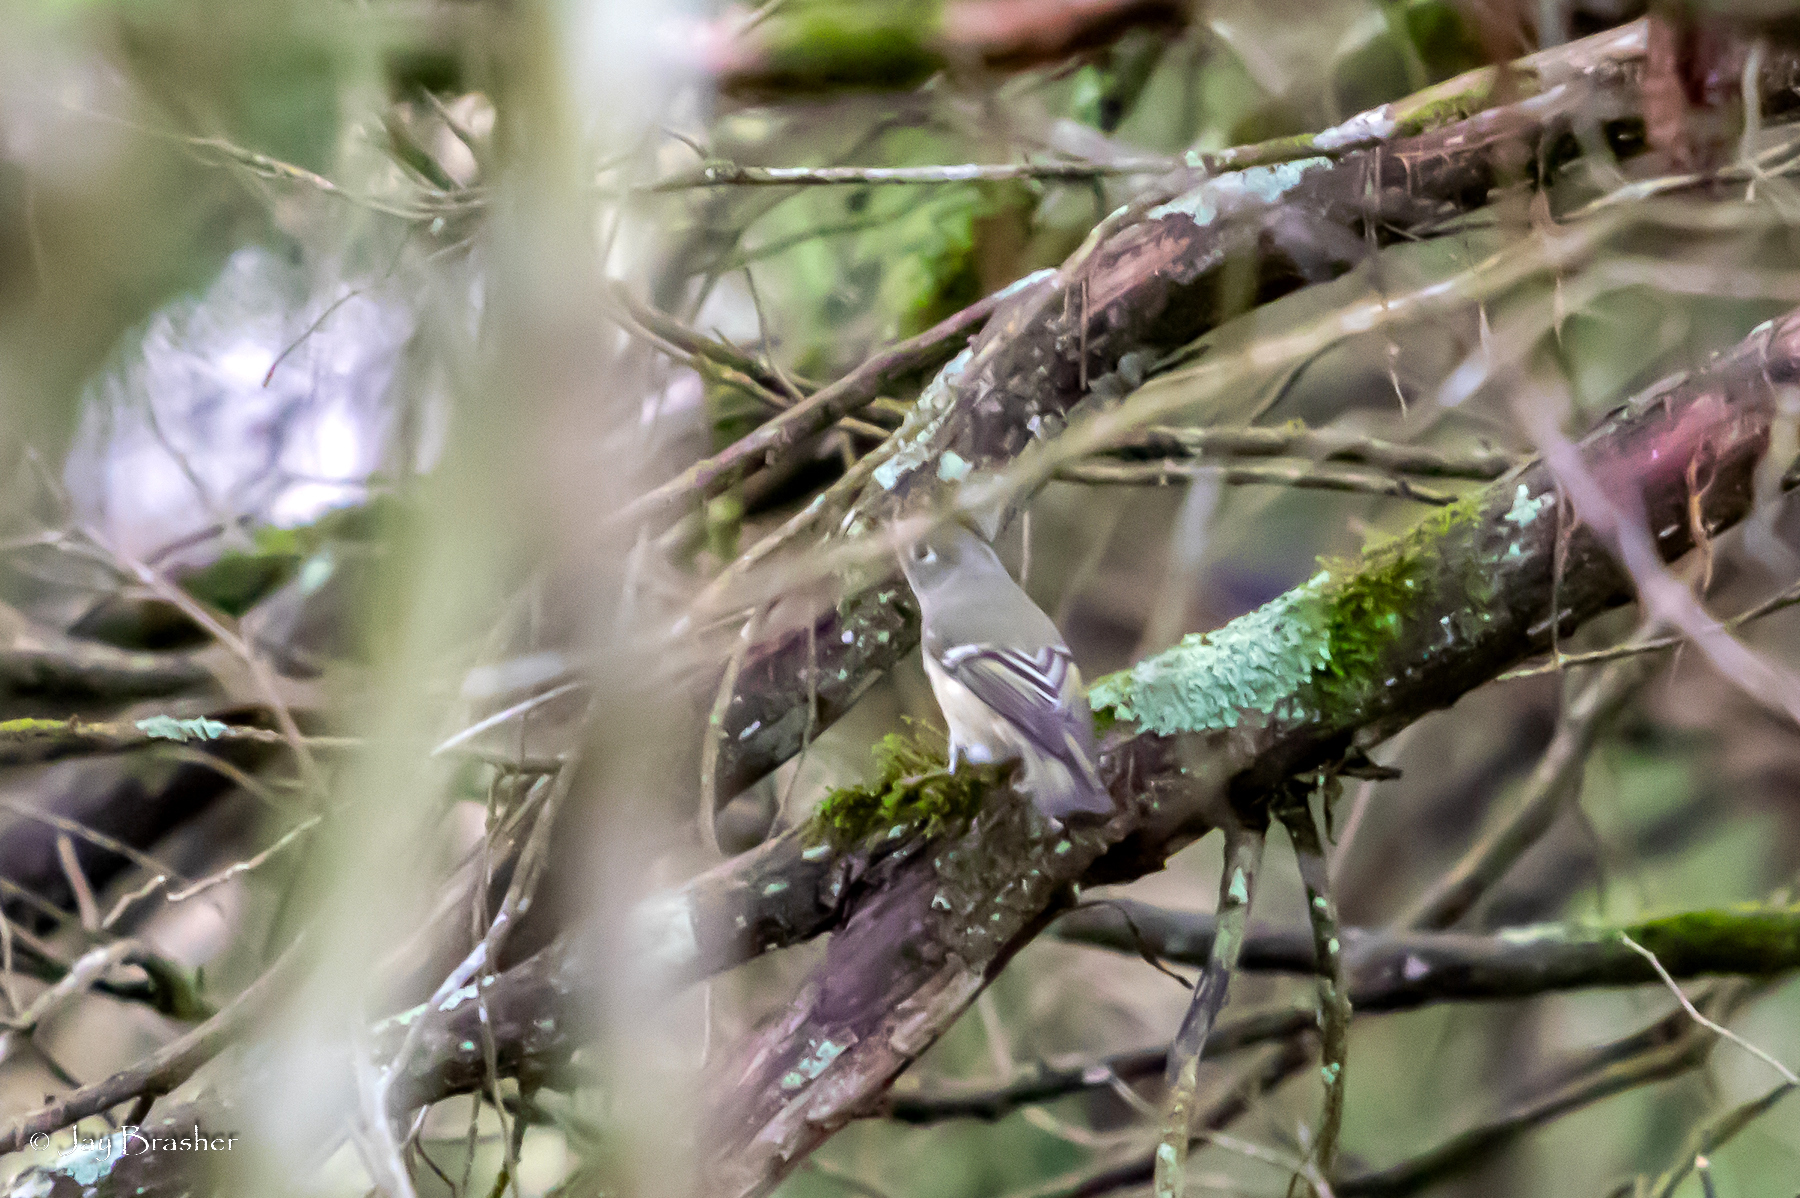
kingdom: Animalia
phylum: Chordata
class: Aves
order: Passeriformes
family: Regulidae
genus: Regulus
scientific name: Regulus calendula
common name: Ruby-crowned kinglet
